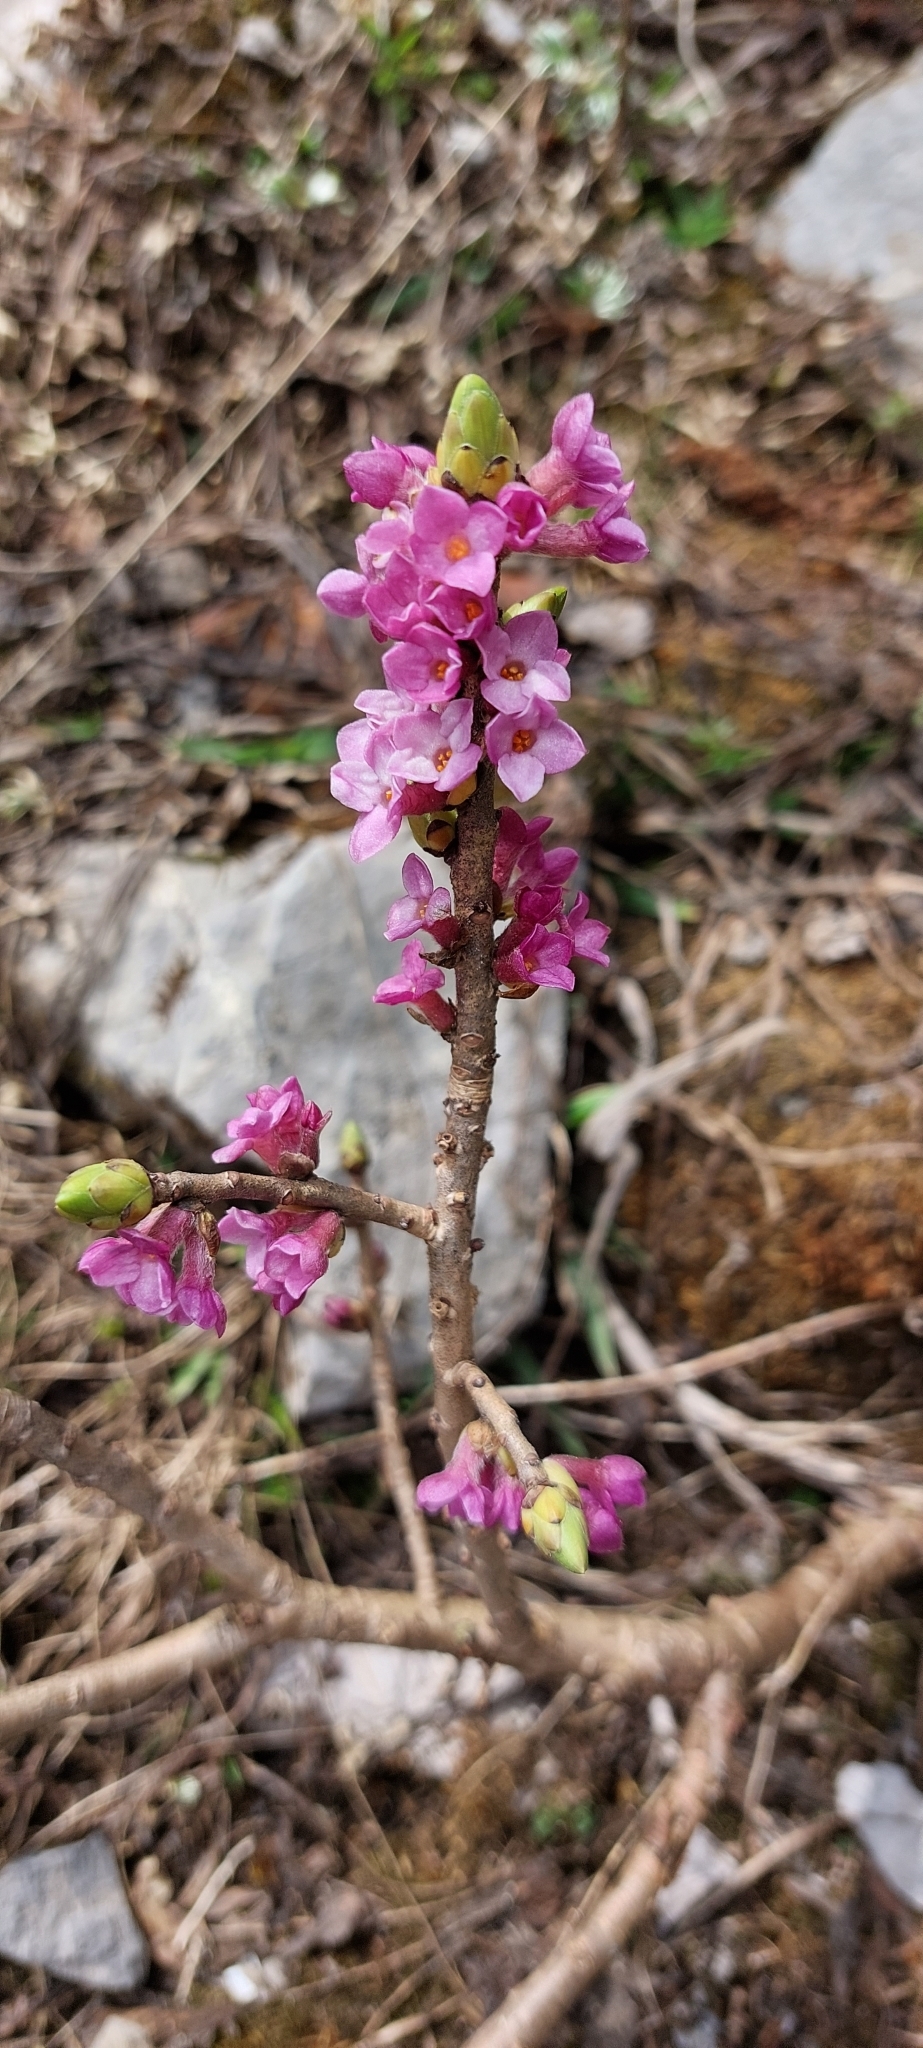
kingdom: Plantae
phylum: Tracheophyta
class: Magnoliopsida
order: Malvales
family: Thymelaeaceae
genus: Daphne
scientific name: Daphne mezereum
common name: Mezereon
